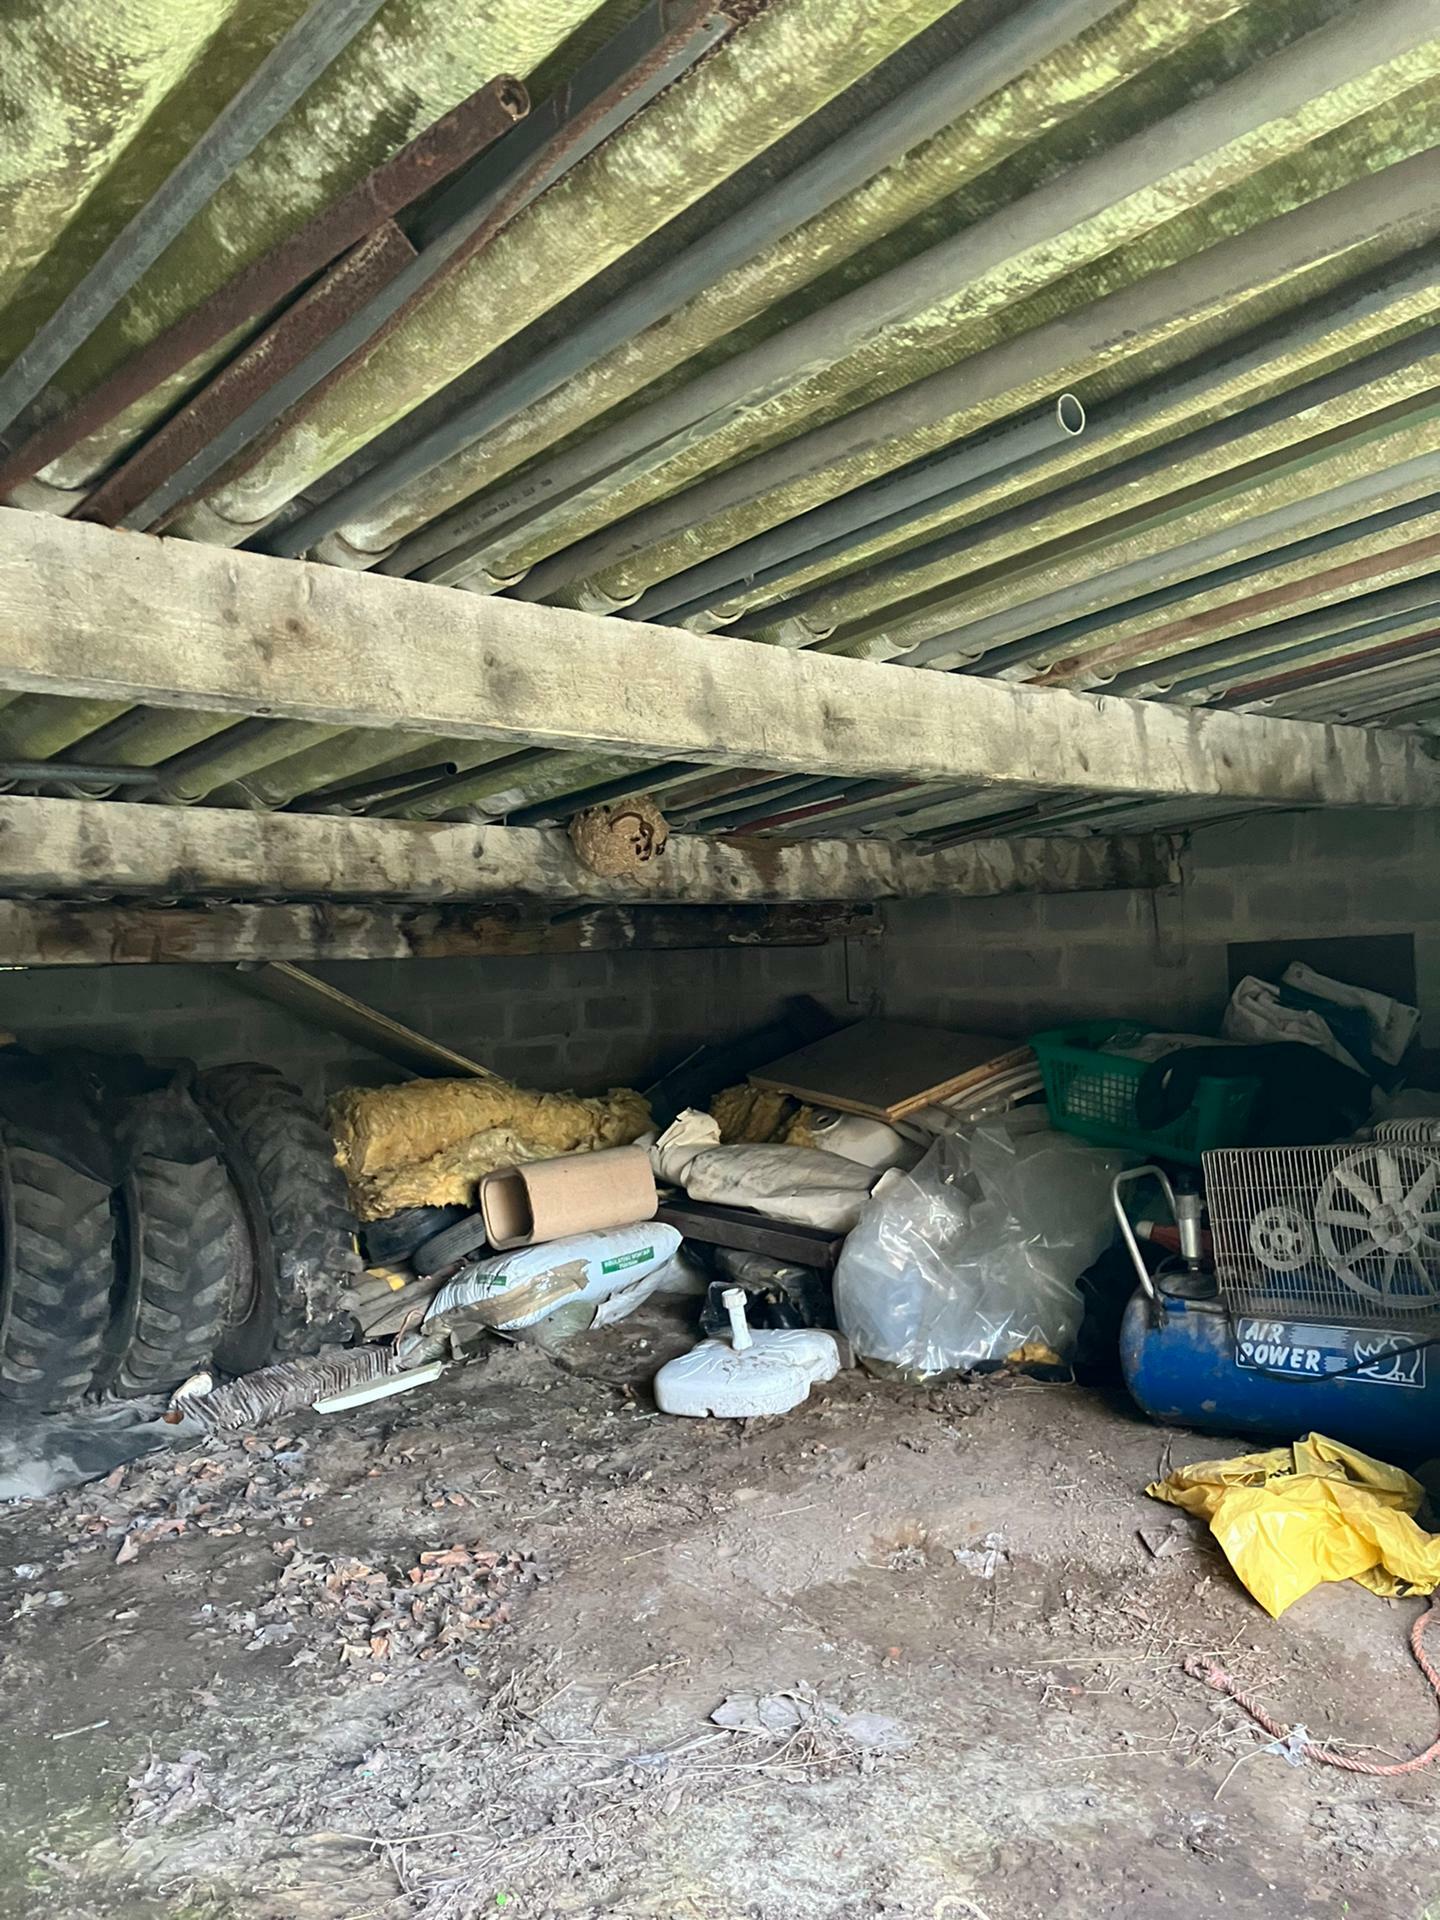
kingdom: Animalia
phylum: Arthropoda
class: Insecta
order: Hymenoptera
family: Vespidae
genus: Vespa
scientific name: Vespa velutina
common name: Asian hornet
